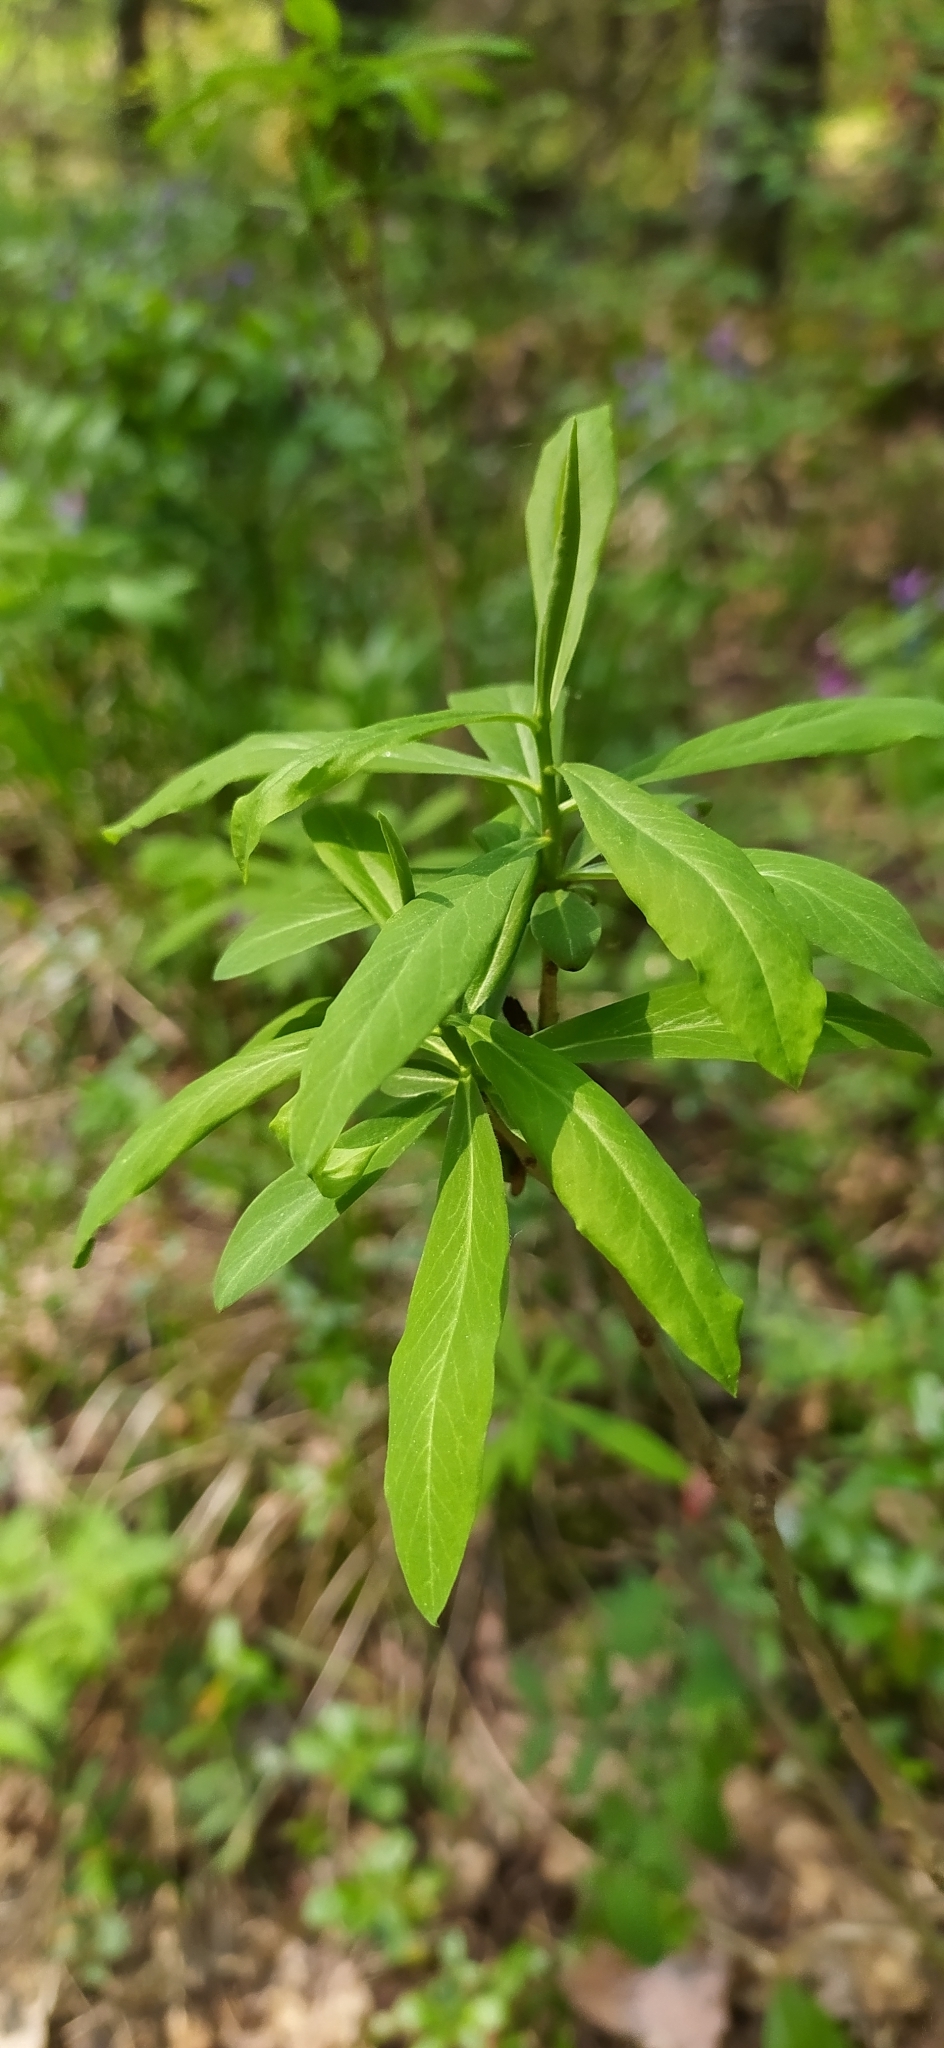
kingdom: Plantae
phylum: Tracheophyta
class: Magnoliopsida
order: Malvales
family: Thymelaeaceae
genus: Daphne
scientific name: Daphne mezereum
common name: Mezereon
